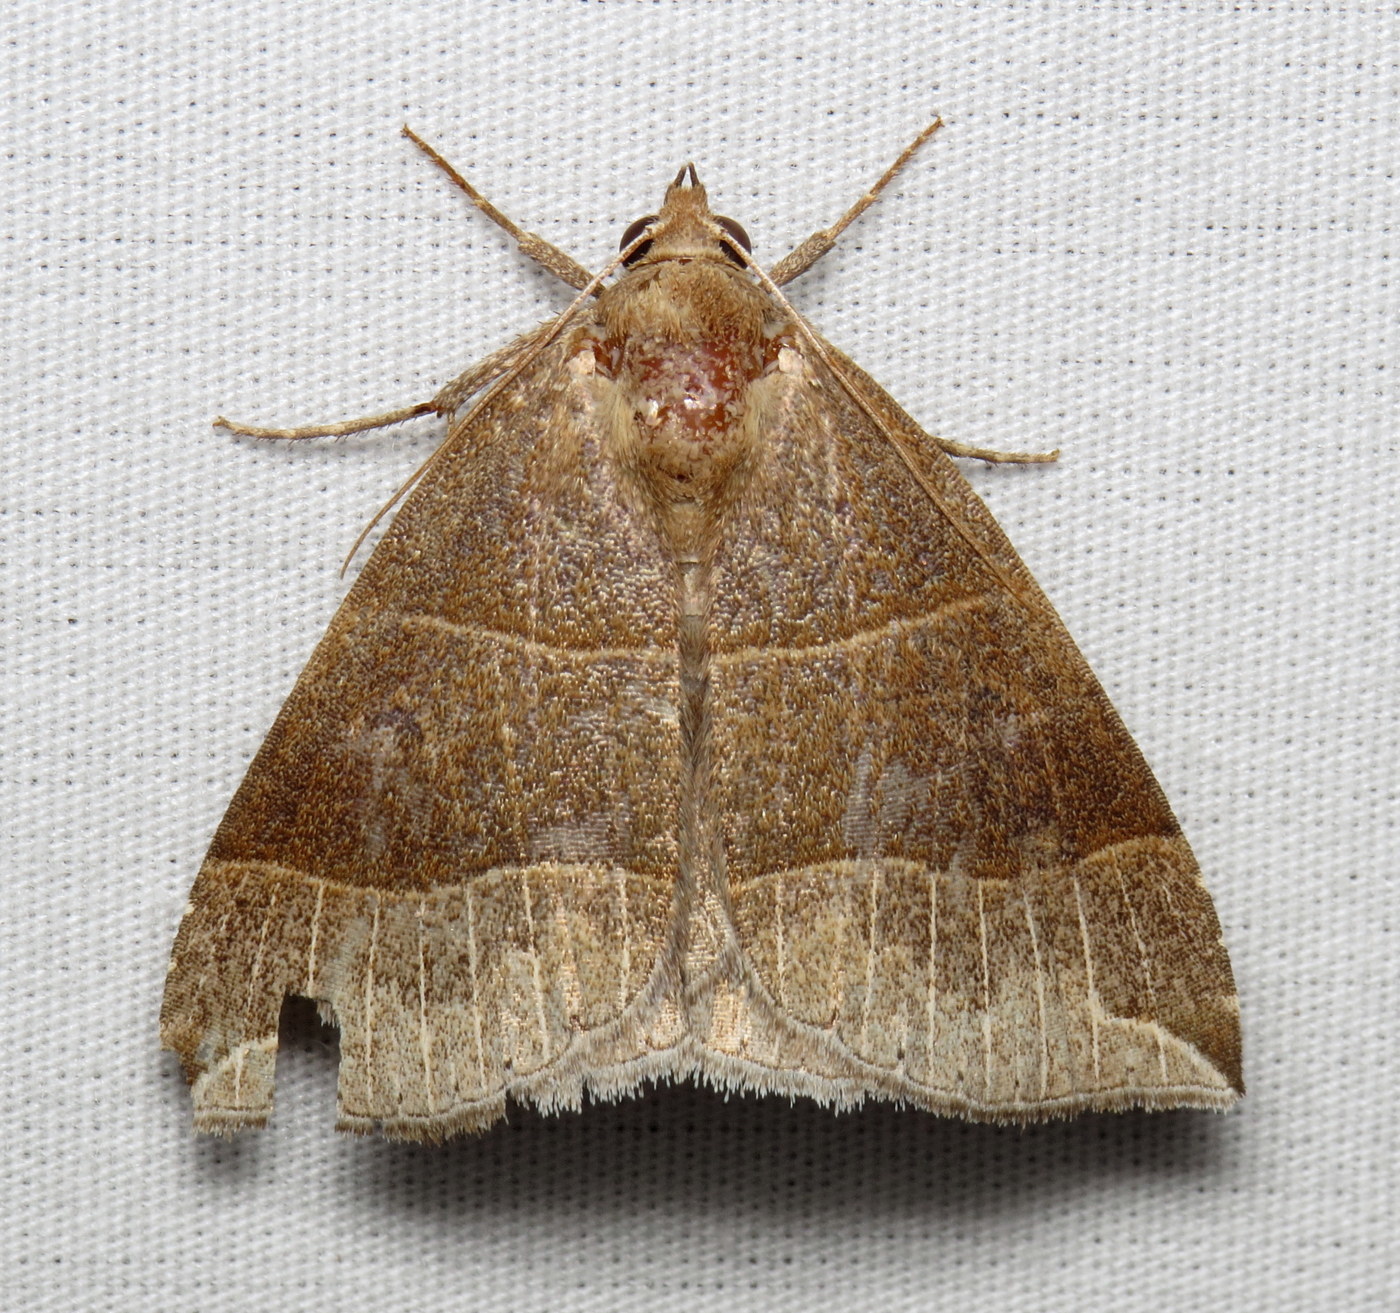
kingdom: Animalia
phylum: Arthropoda
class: Insecta
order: Lepidoptera
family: Erebidae
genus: Parallelia
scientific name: Parallelia bistriaris
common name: Maple looper moth
